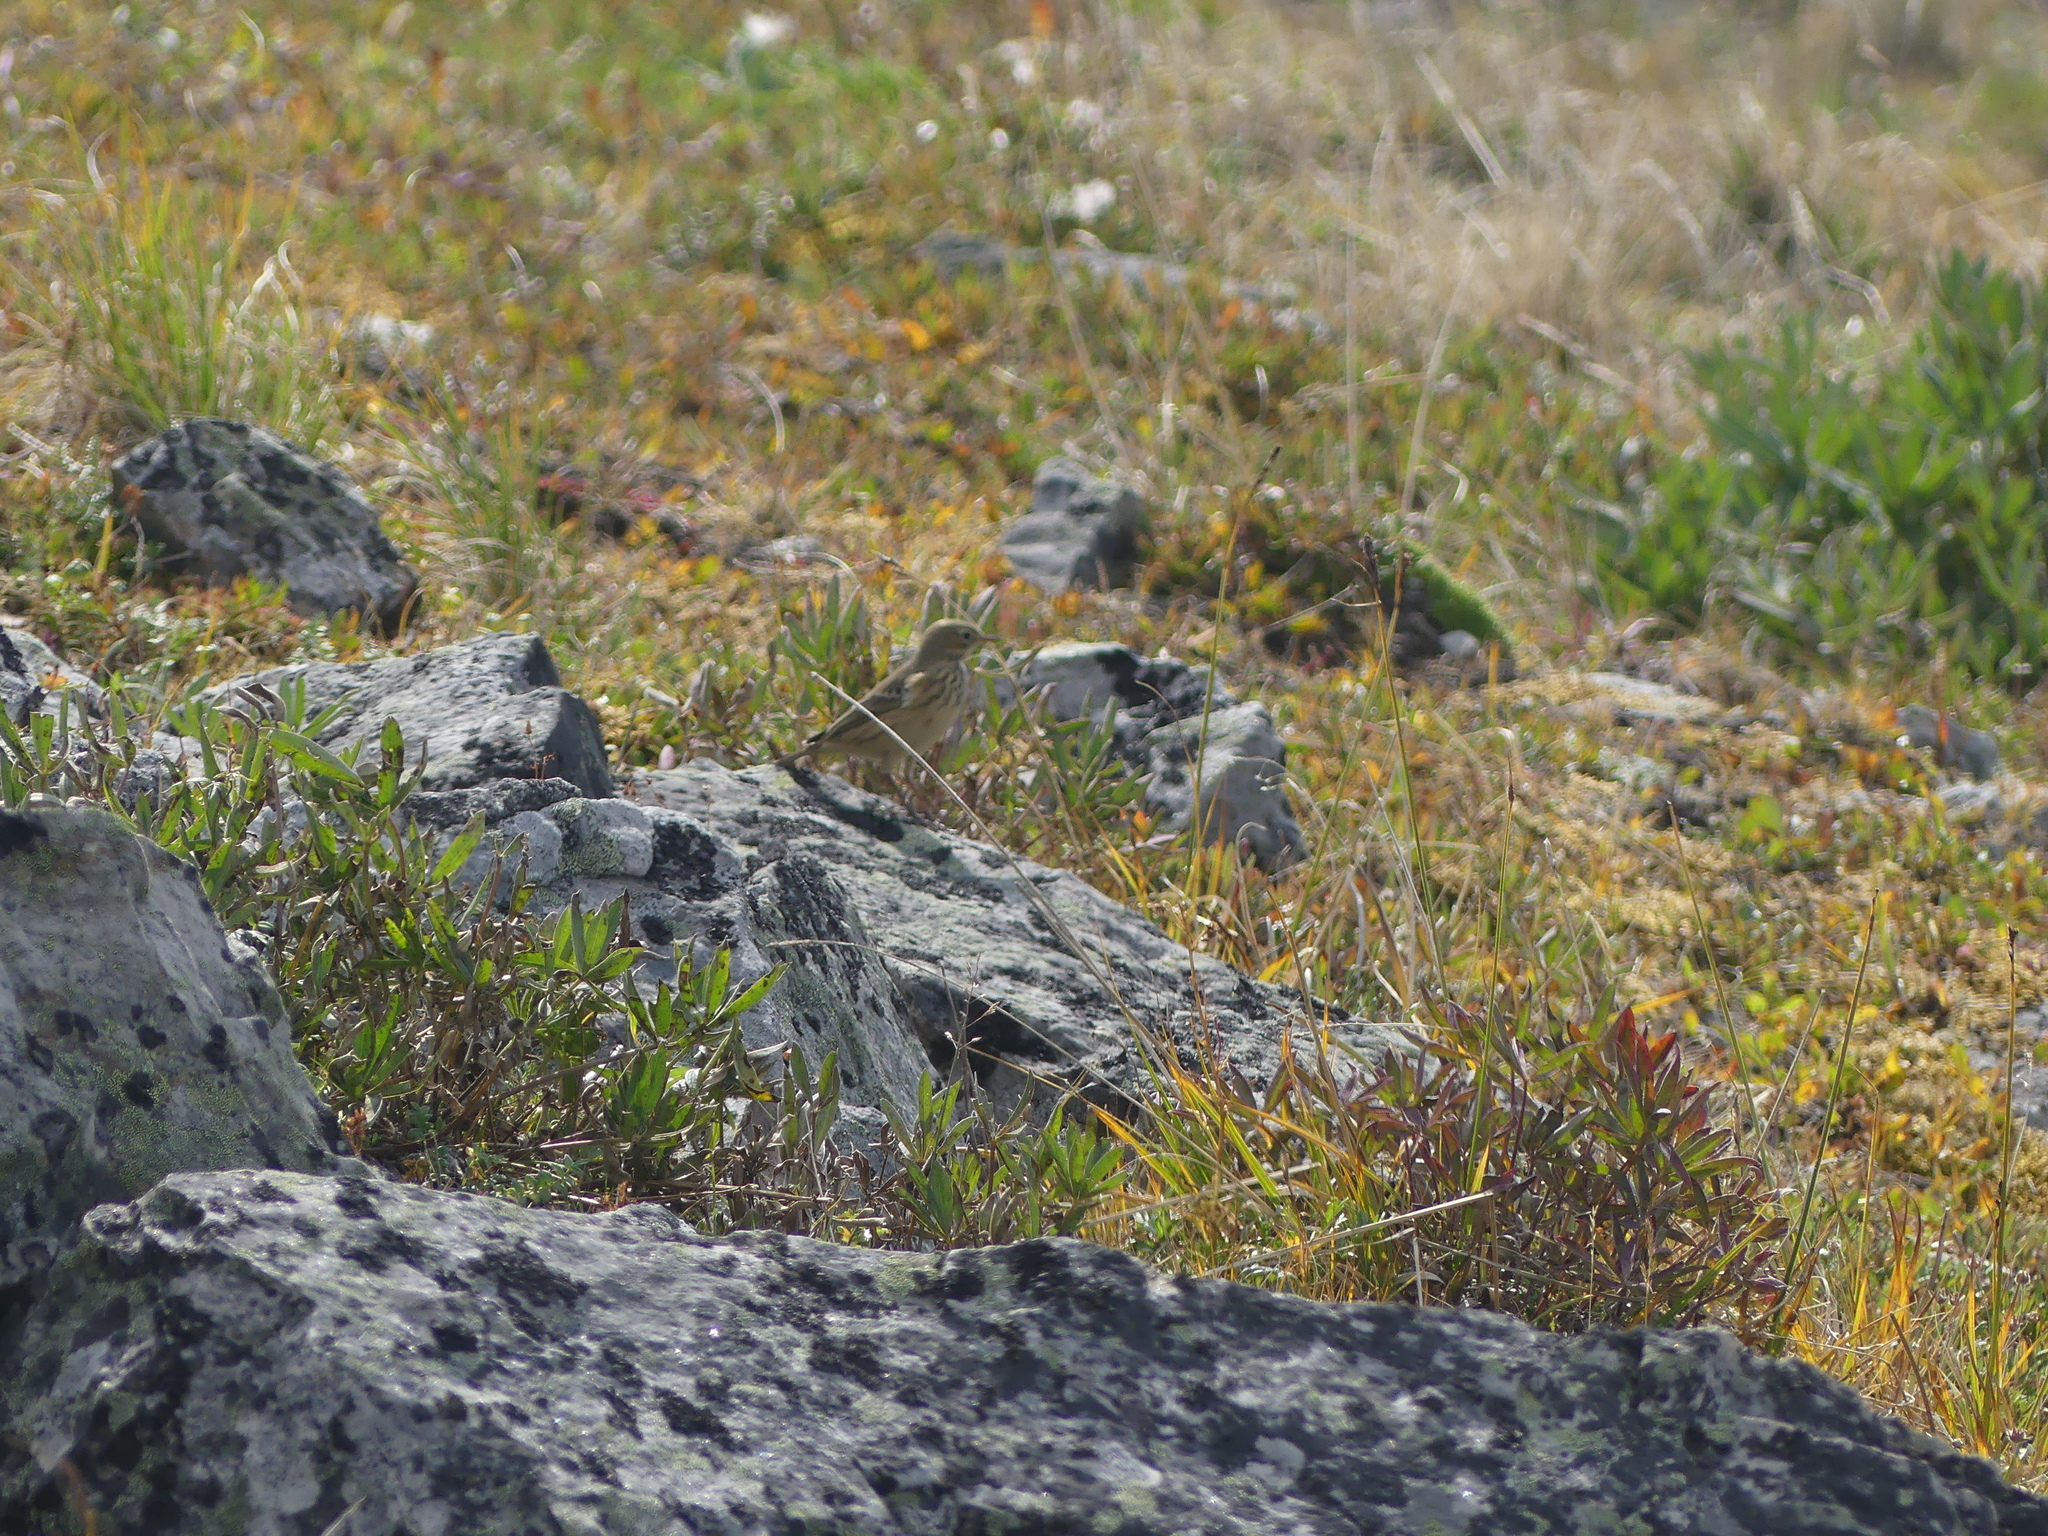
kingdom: Animalia
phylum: Chordata
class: Aves
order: Passeriformes
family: Motacillidae
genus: Anthus
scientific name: Anthus rubescens
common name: Buff-bellied pipit
